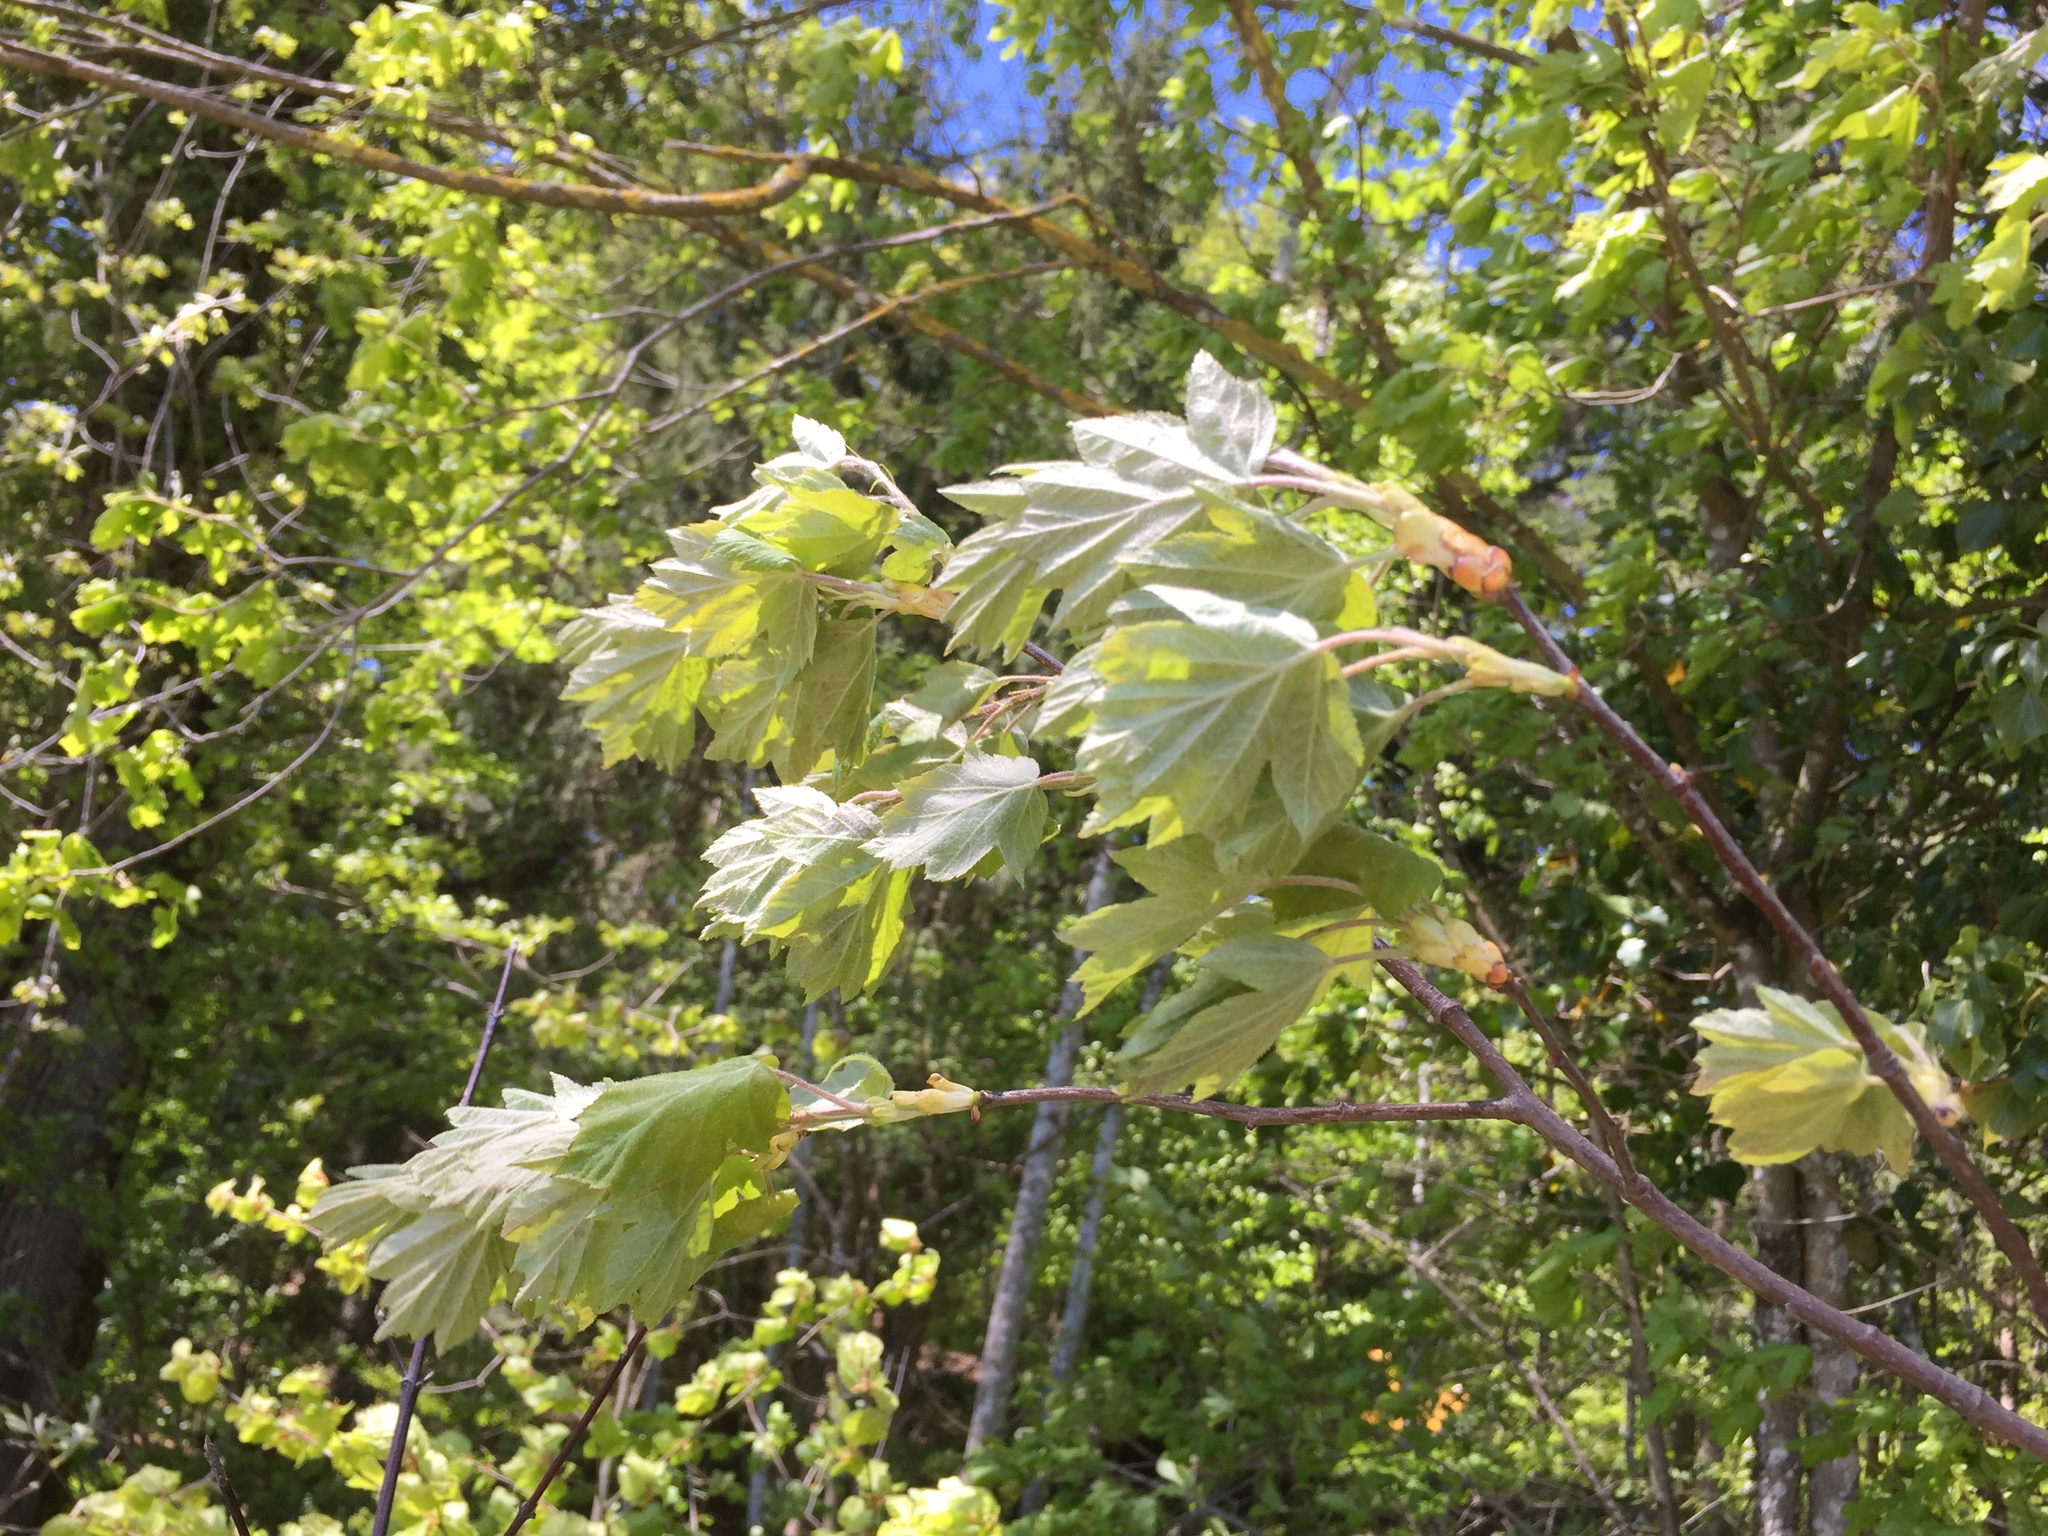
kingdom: Plantae
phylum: Tracheophyta
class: Magnoliopsida
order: Rosales
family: Rosaceae
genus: Torminalis
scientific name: Torminalis glaberrima
